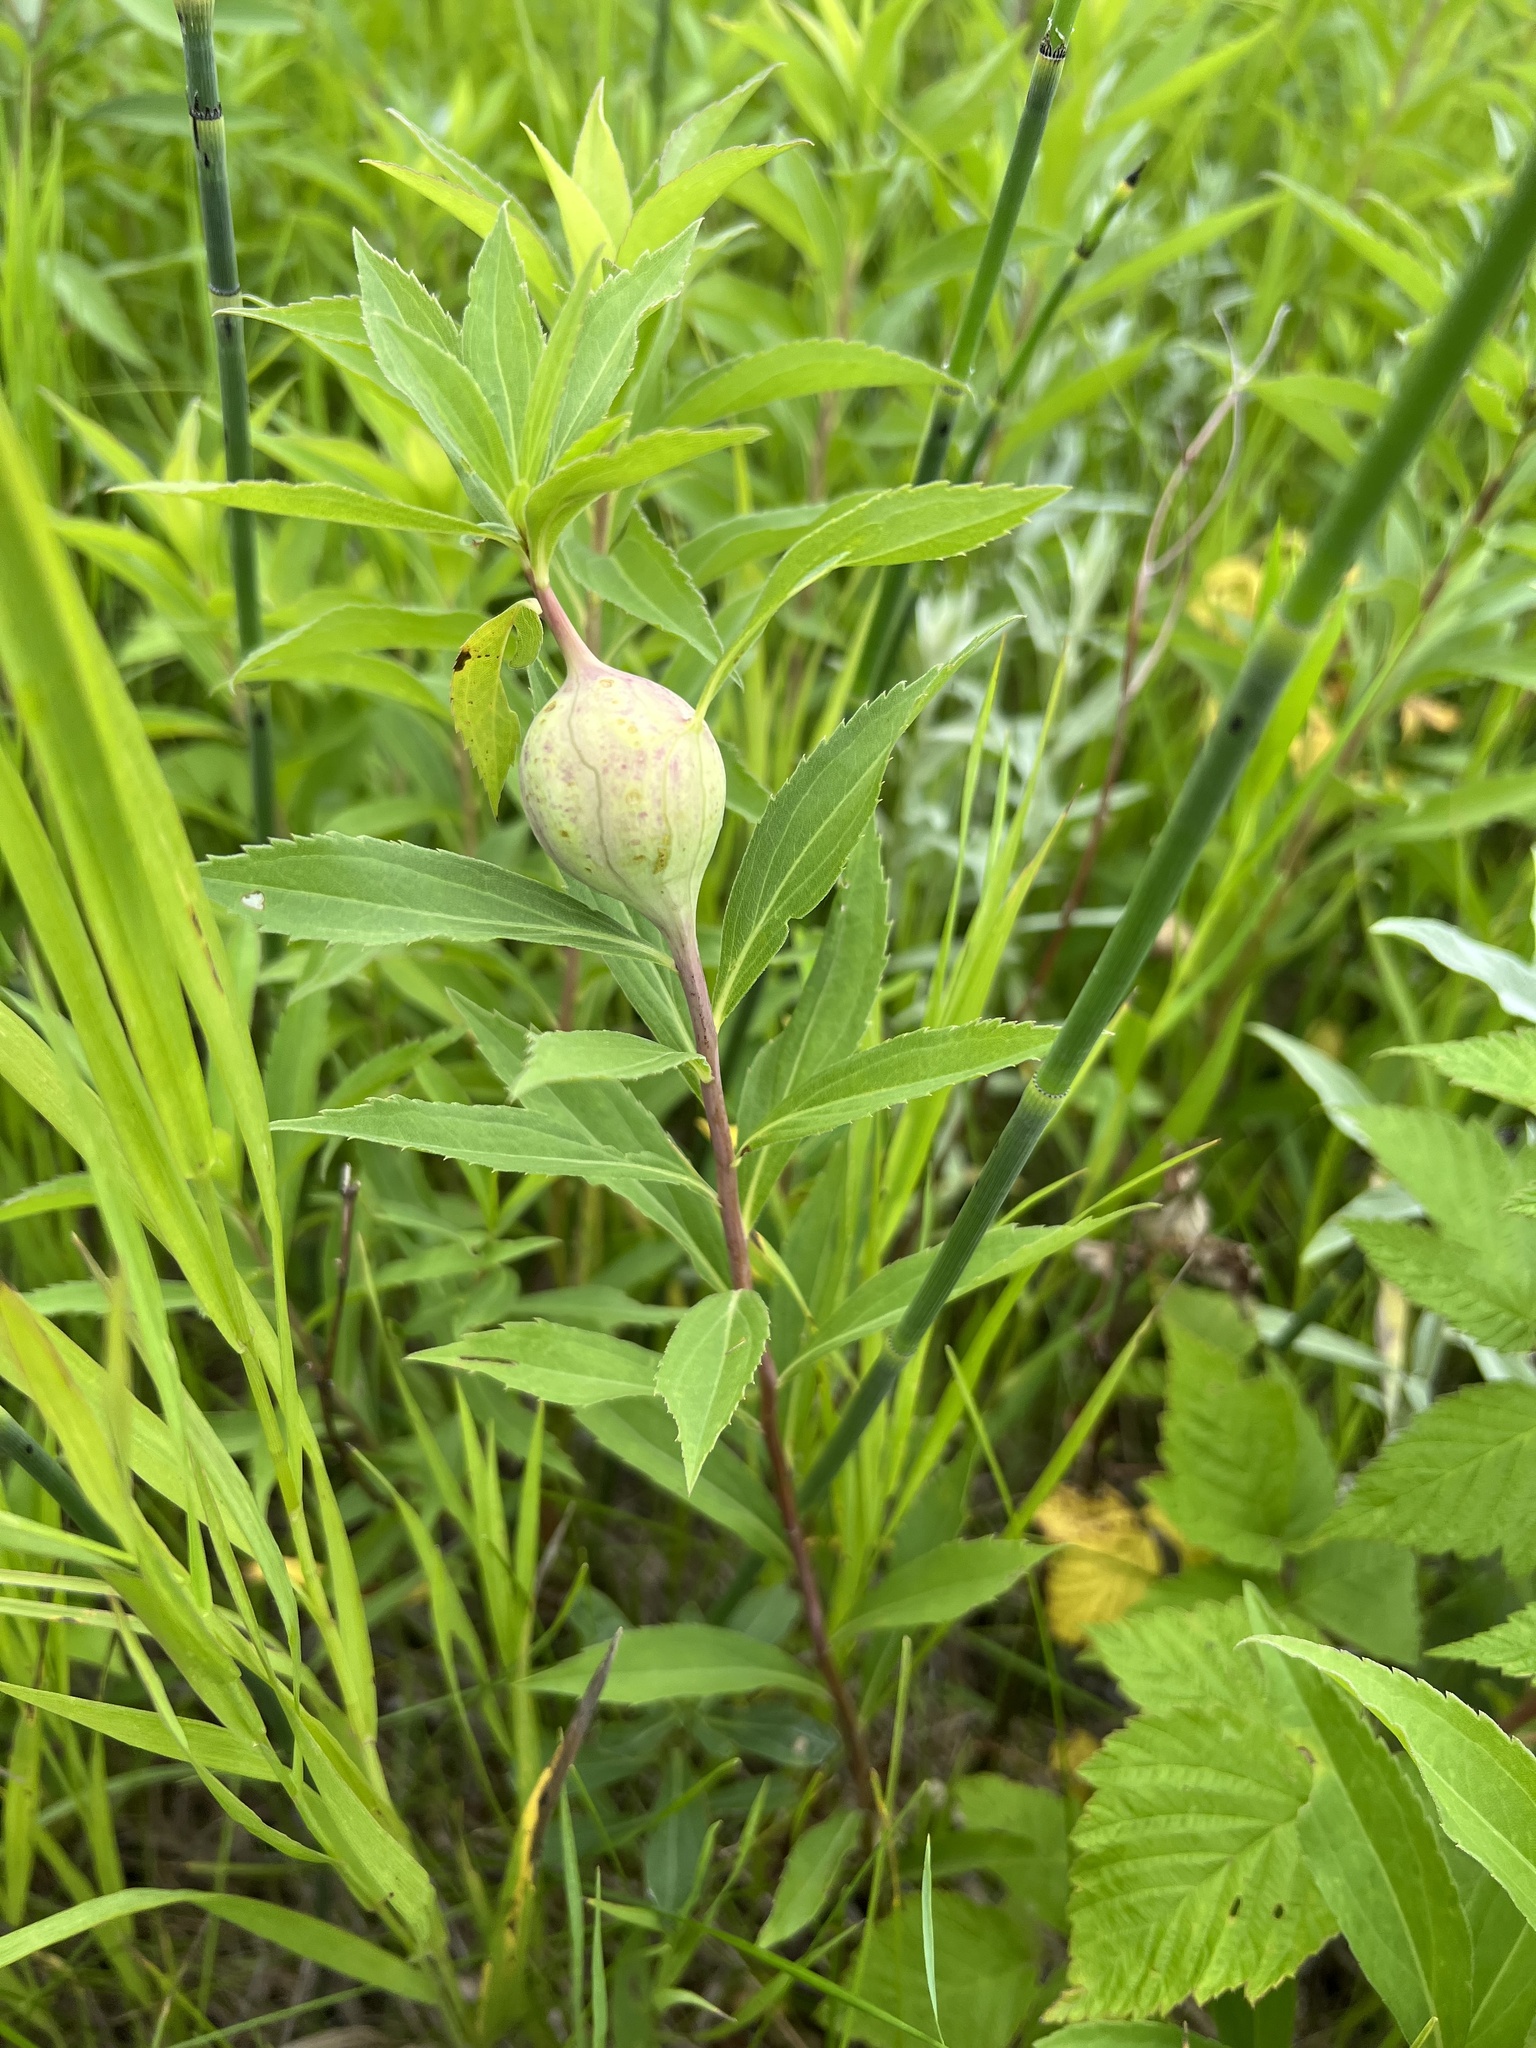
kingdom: Animalia
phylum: Arthropoda
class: Insecta
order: Diptera
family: Tephritidae
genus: Eurosta
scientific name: Eurosta solidaginis
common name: Goldenrod gall fly
